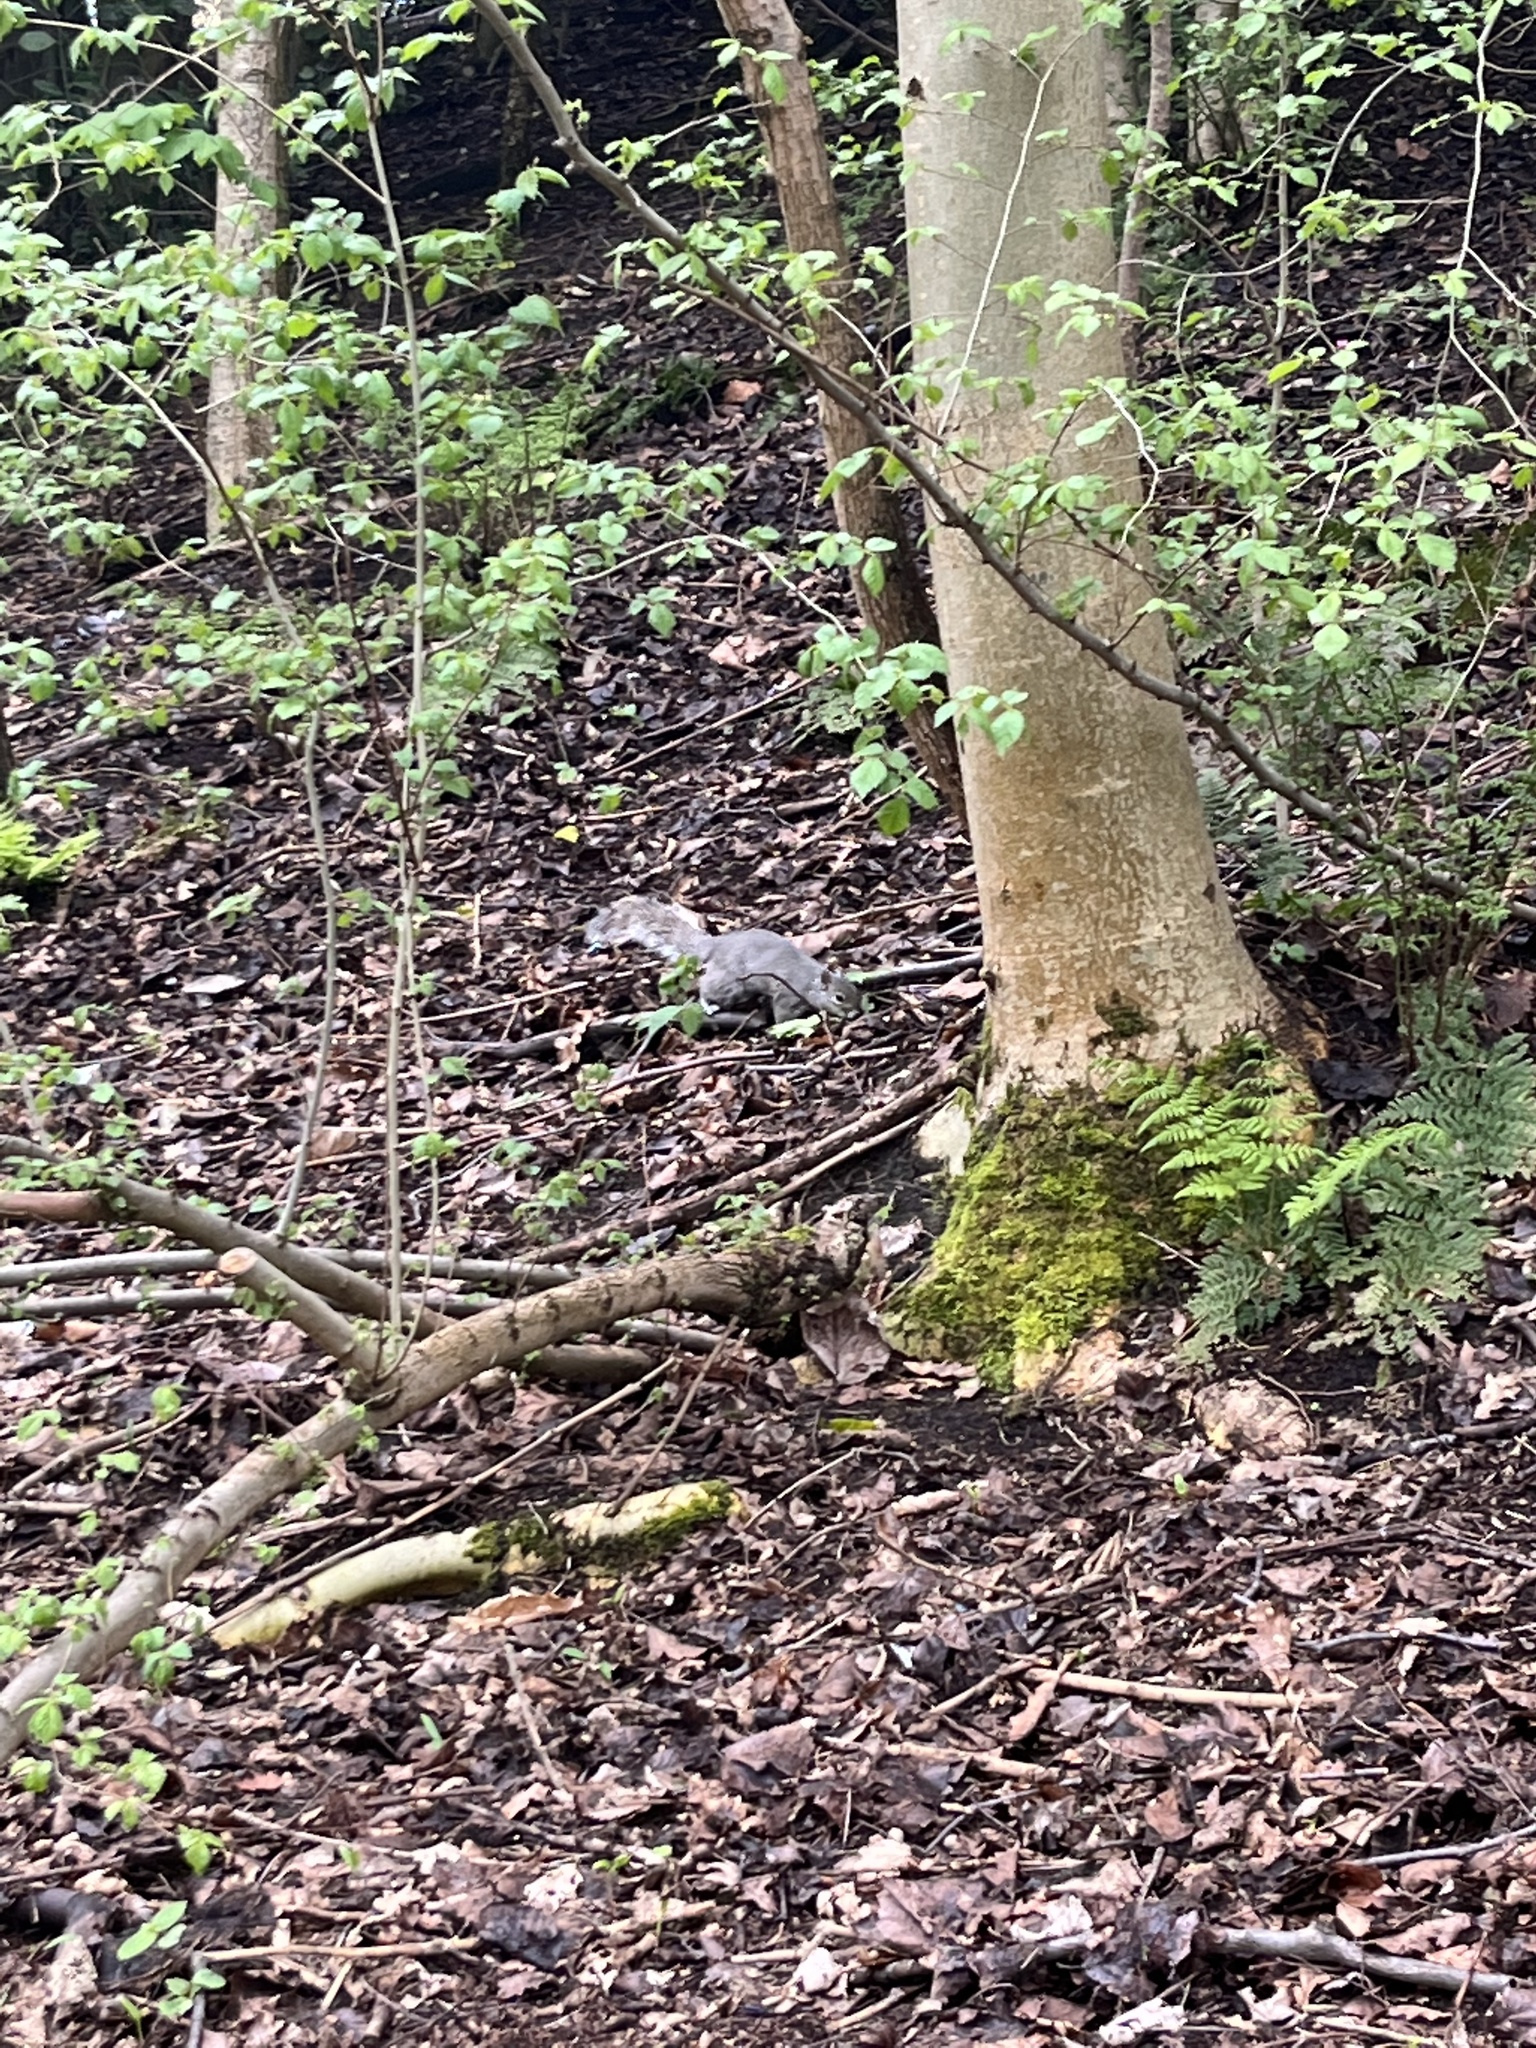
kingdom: Animalia
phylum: Chordata
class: Mammalia
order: Rodentia
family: Sciuridae
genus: Sciurus
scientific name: Sciurus carolinensis
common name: Eastern gray squirrel
